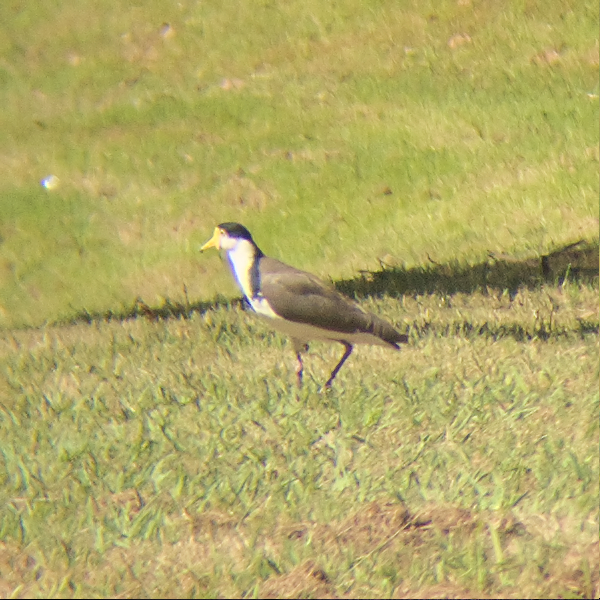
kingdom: Animalia
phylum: Chordata
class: Aves
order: Charadriiformes
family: Charadriidae
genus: Vanellus
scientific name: Vanellus miles
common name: Masked lapwing
